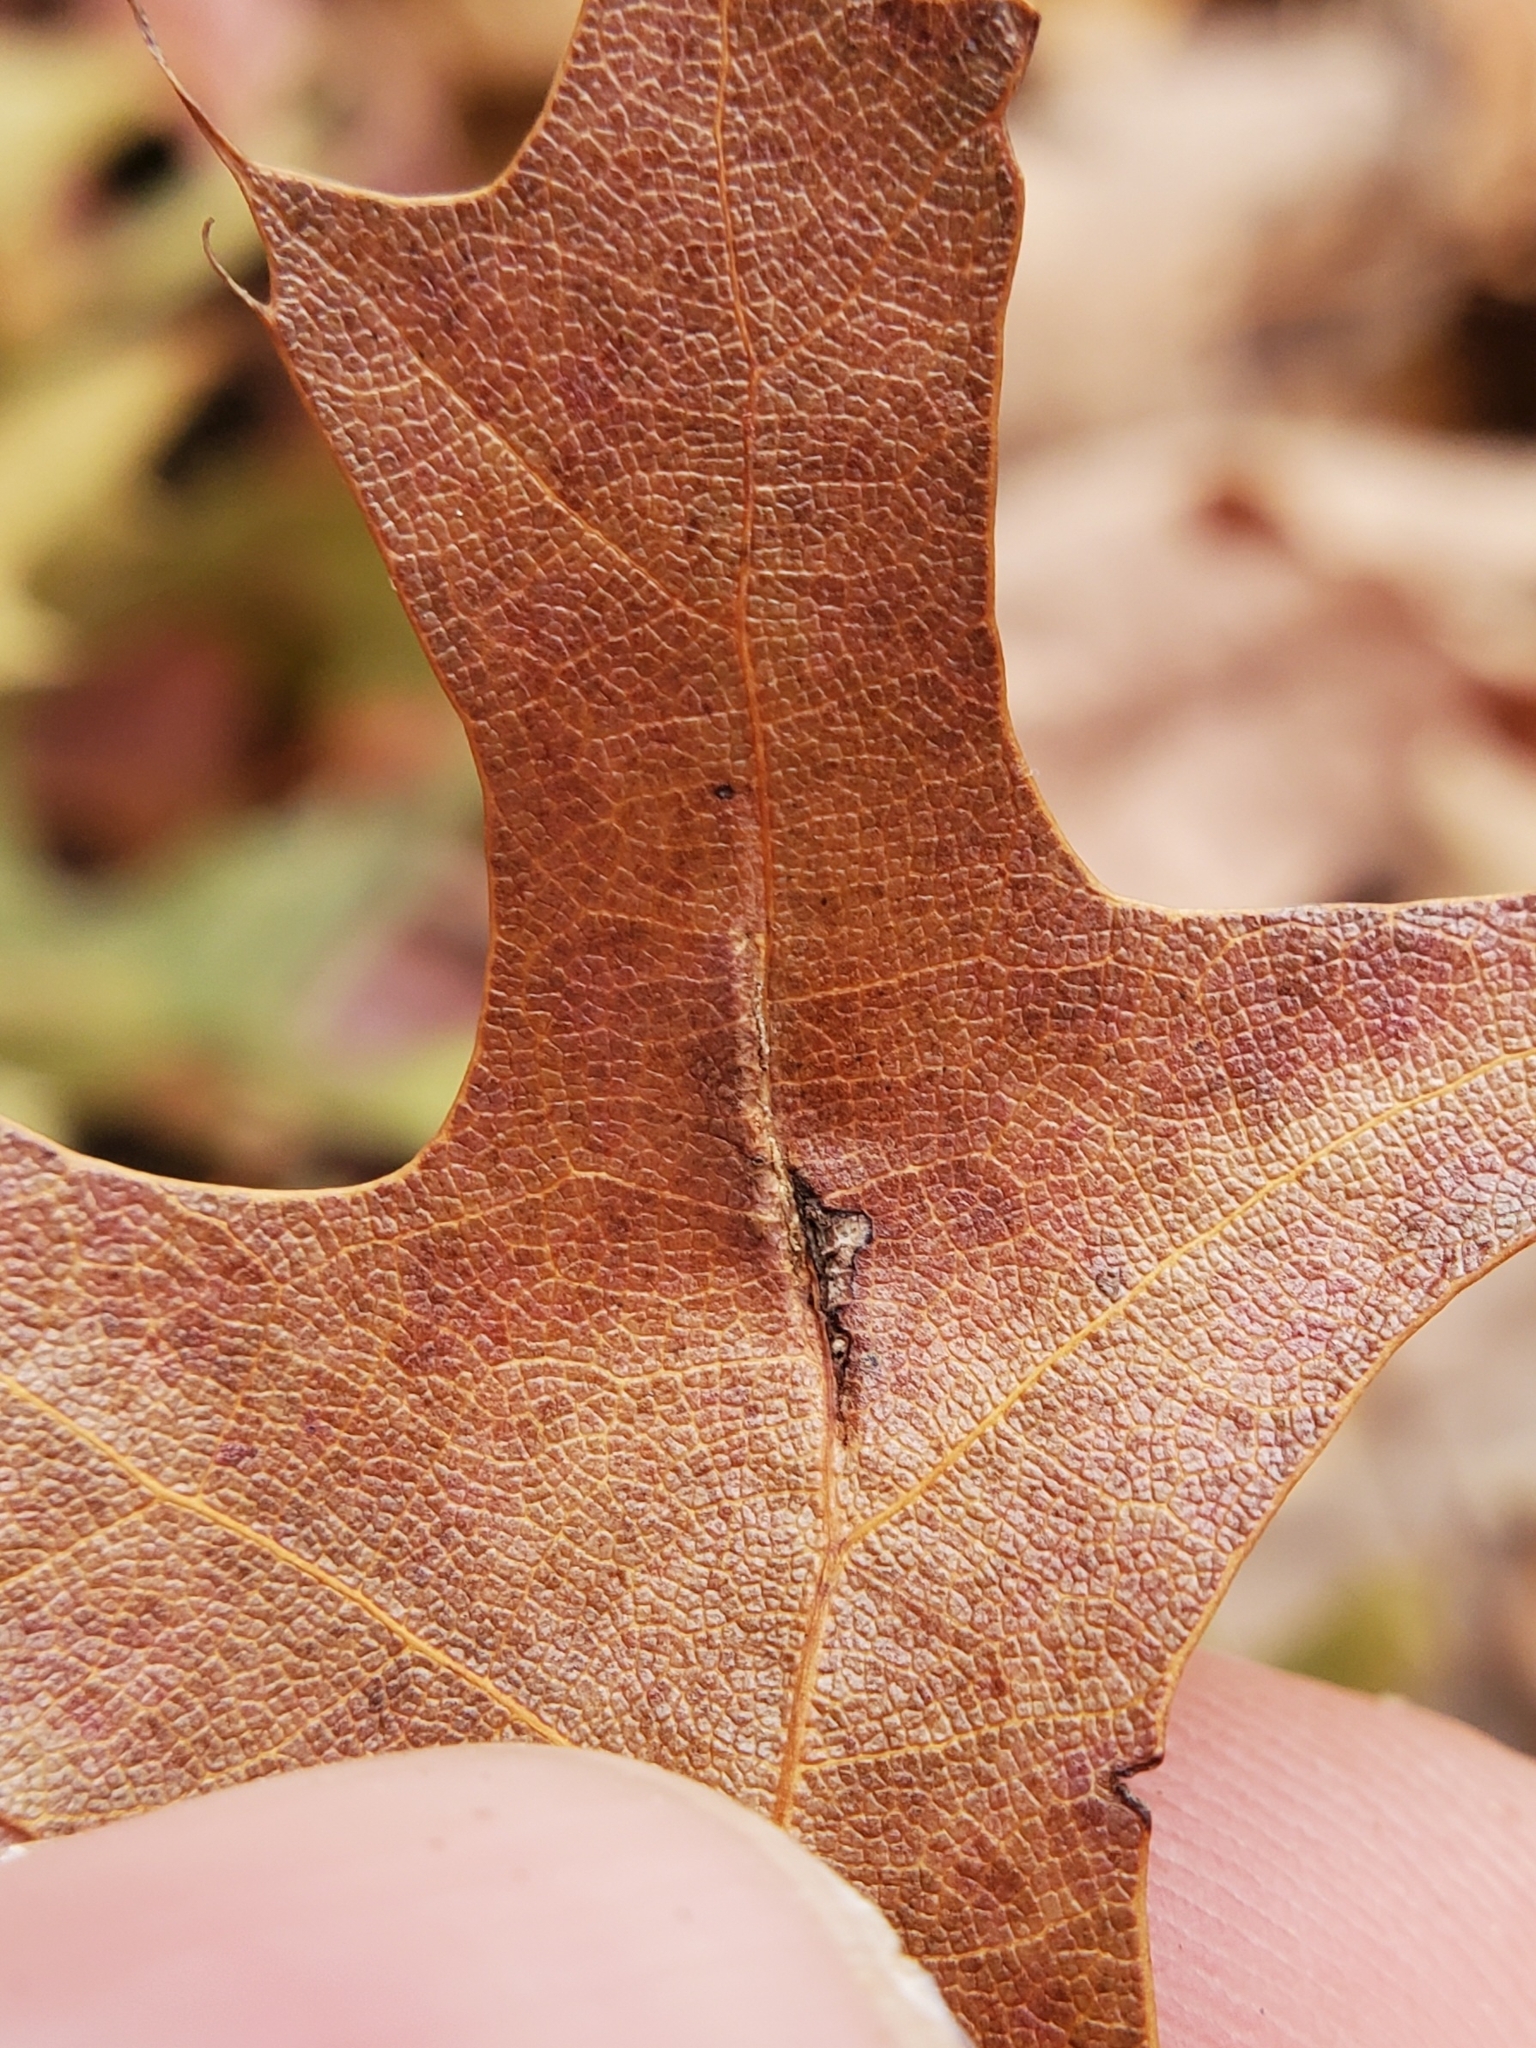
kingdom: Animalia
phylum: Arthropoda
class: Insecta
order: Diptera
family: Cecidomyiidae
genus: Macrodiplosis
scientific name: Macrodiplosis q-orucum
